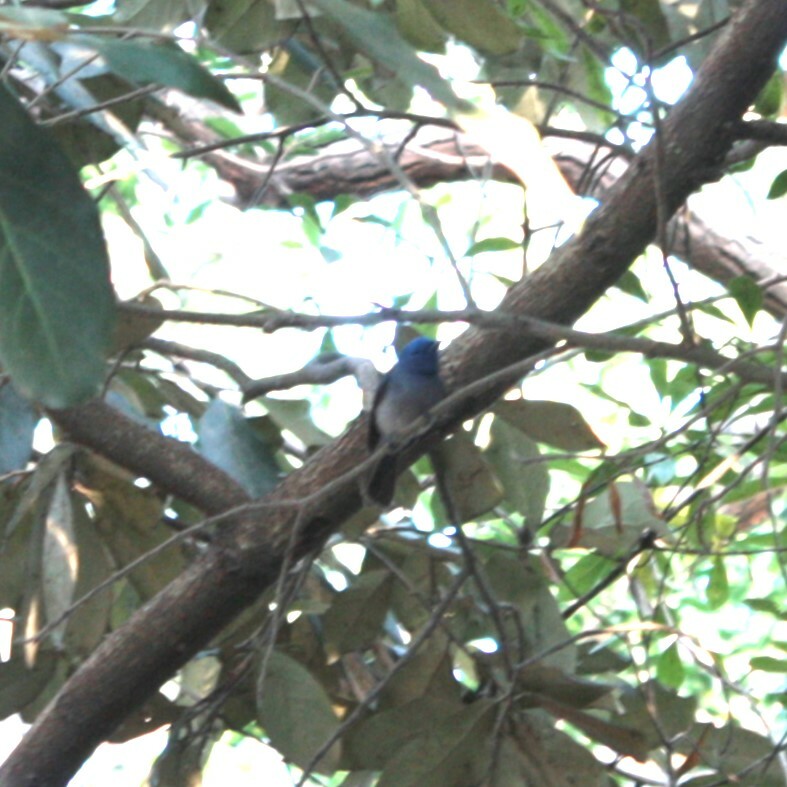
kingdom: Animalia
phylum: Chordata
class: Aves
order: Passeriformes
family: Monarchidae
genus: Hypothymis
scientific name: Hypothymis azurea
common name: Black-naped monarch
